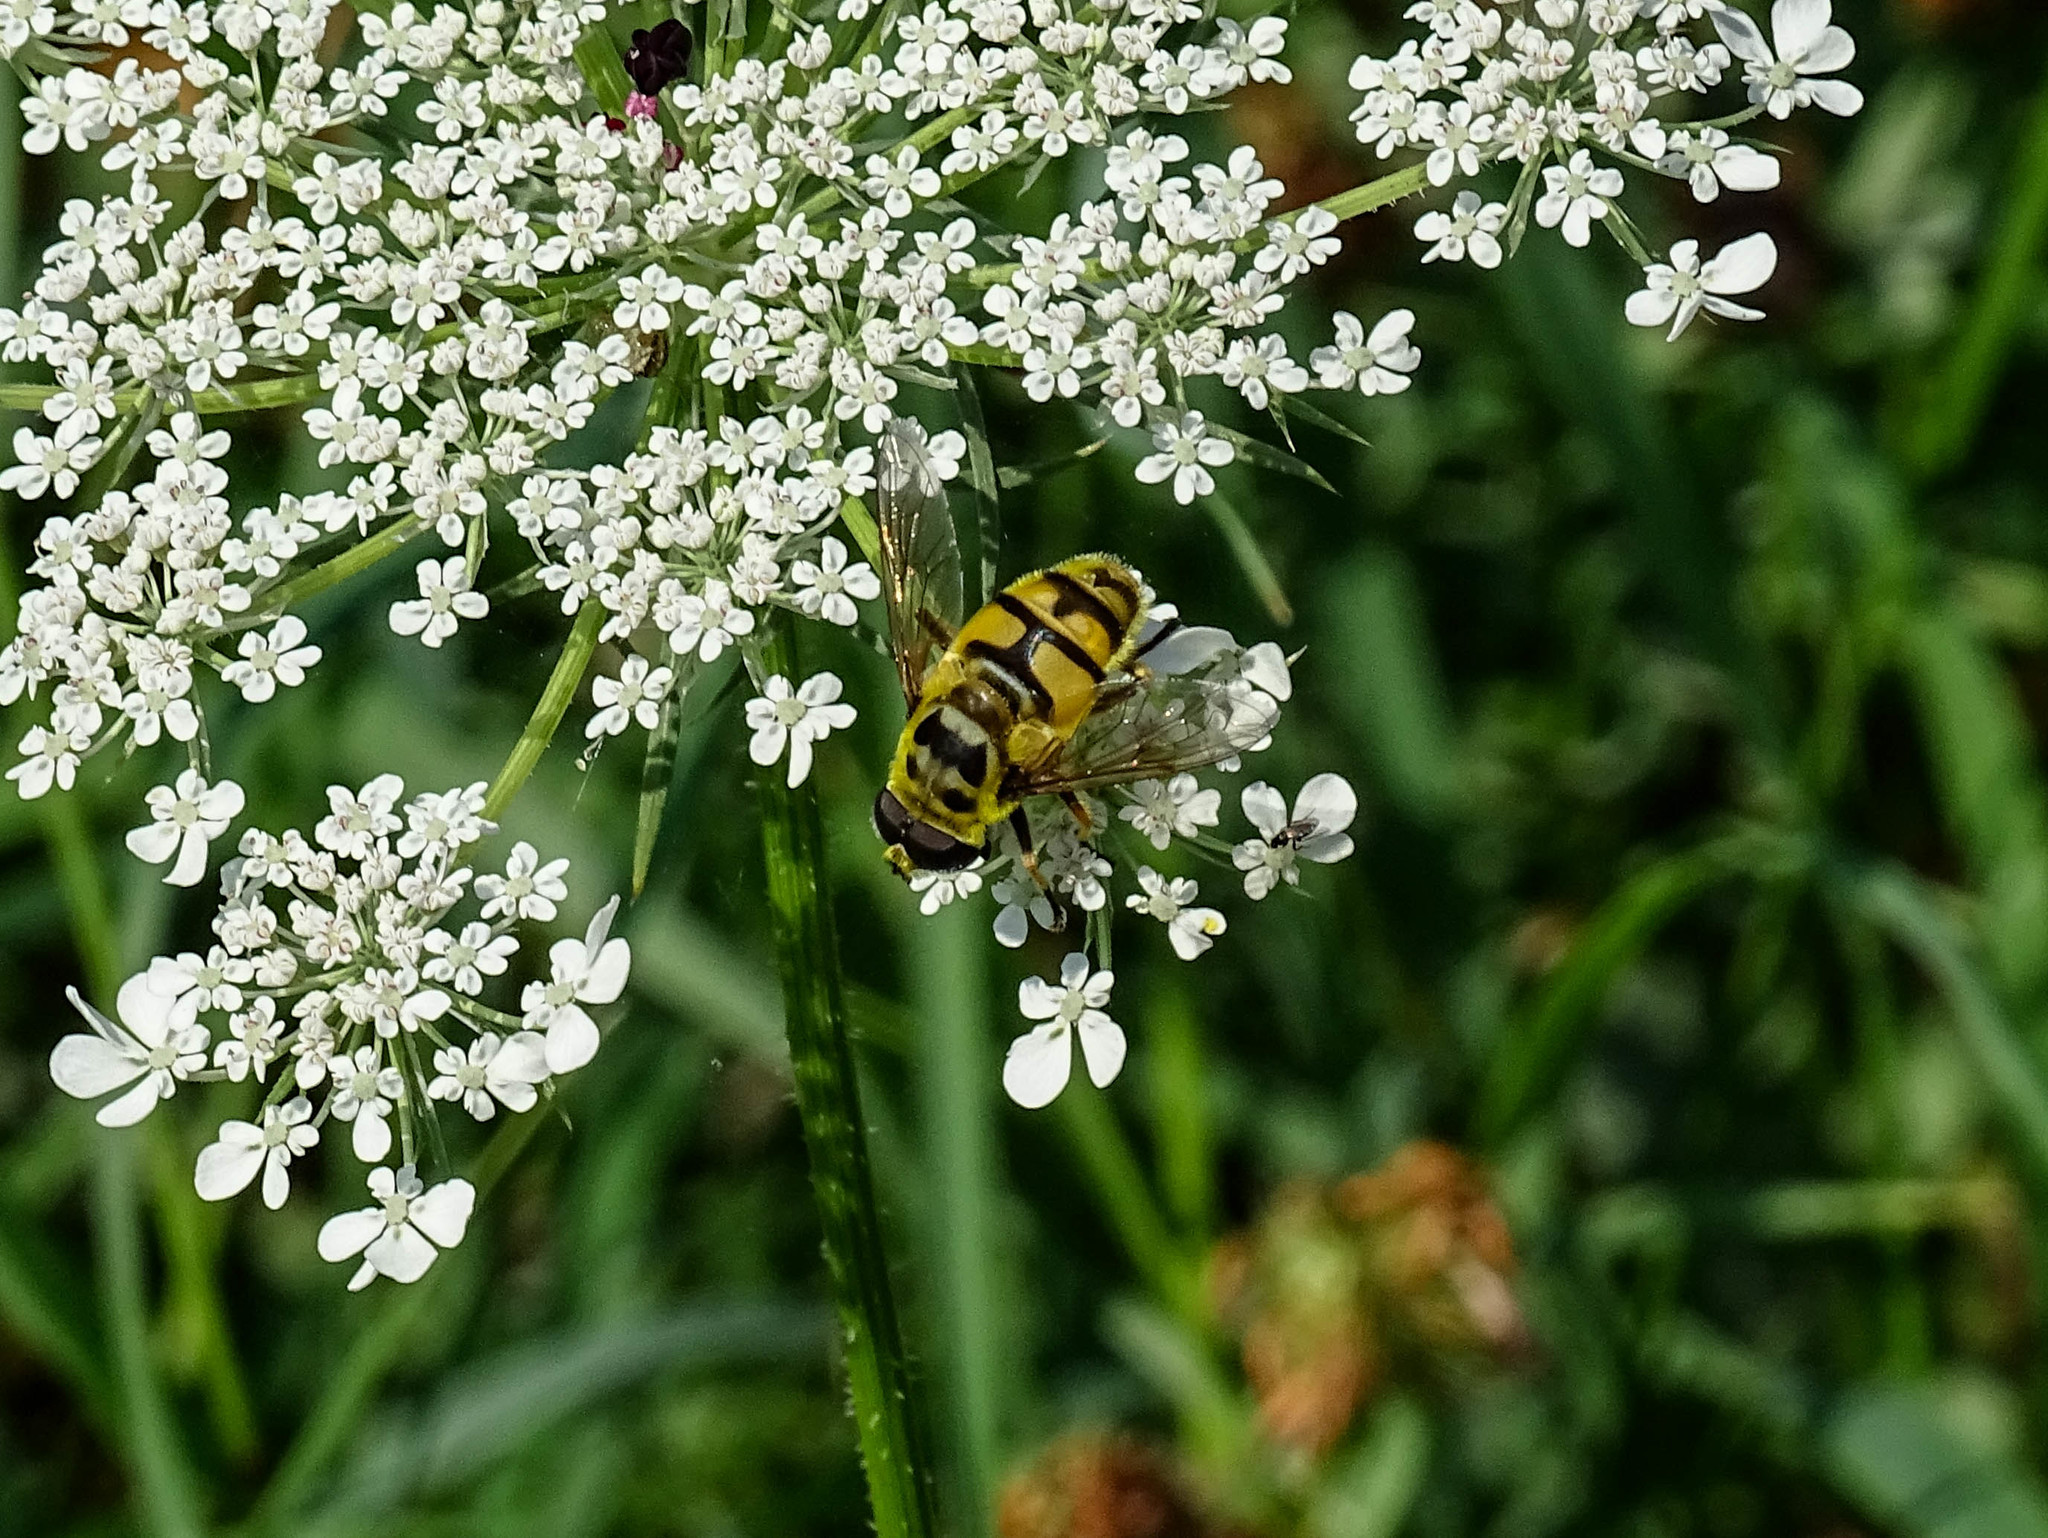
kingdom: Animalia
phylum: Arthropoda
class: Insecta
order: Diptera
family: Syrphidae
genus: Myathropa
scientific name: Myathropa florea
